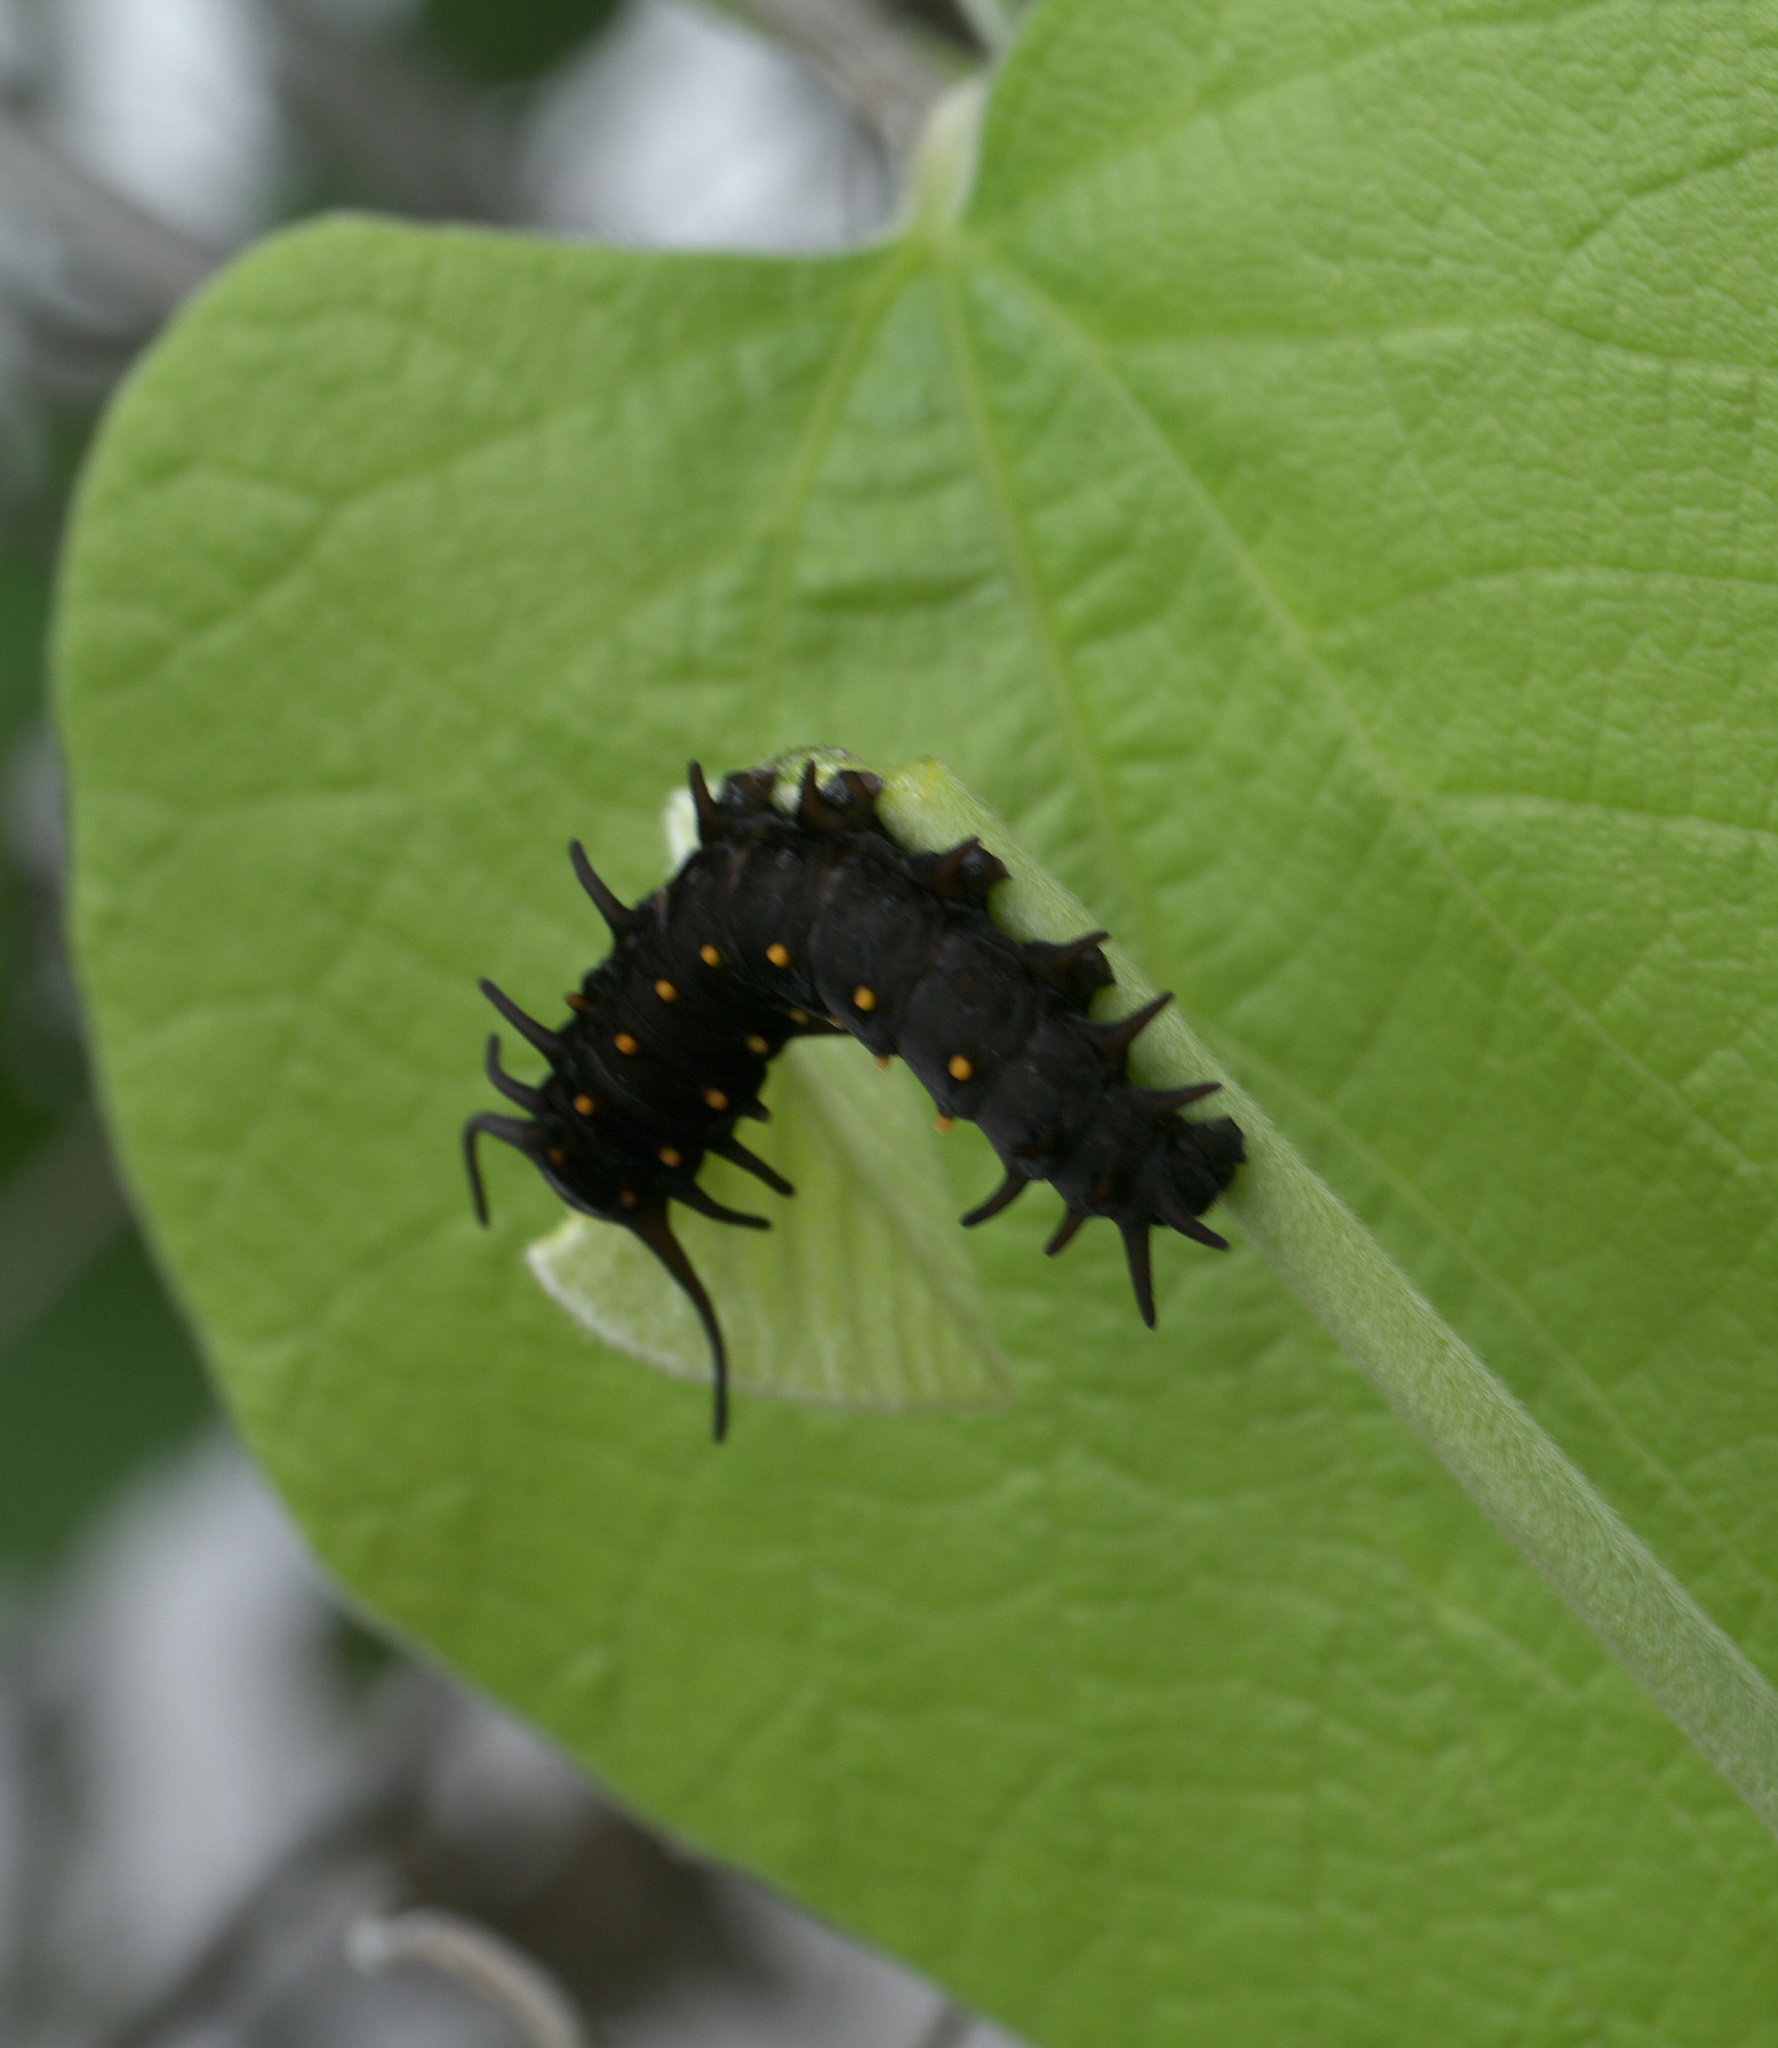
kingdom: Animalia
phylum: Arthropoda
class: Insecta
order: Lepidoptera
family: Papilionidae
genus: Battus
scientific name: Battus philenor
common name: Pipevine swallowtail
